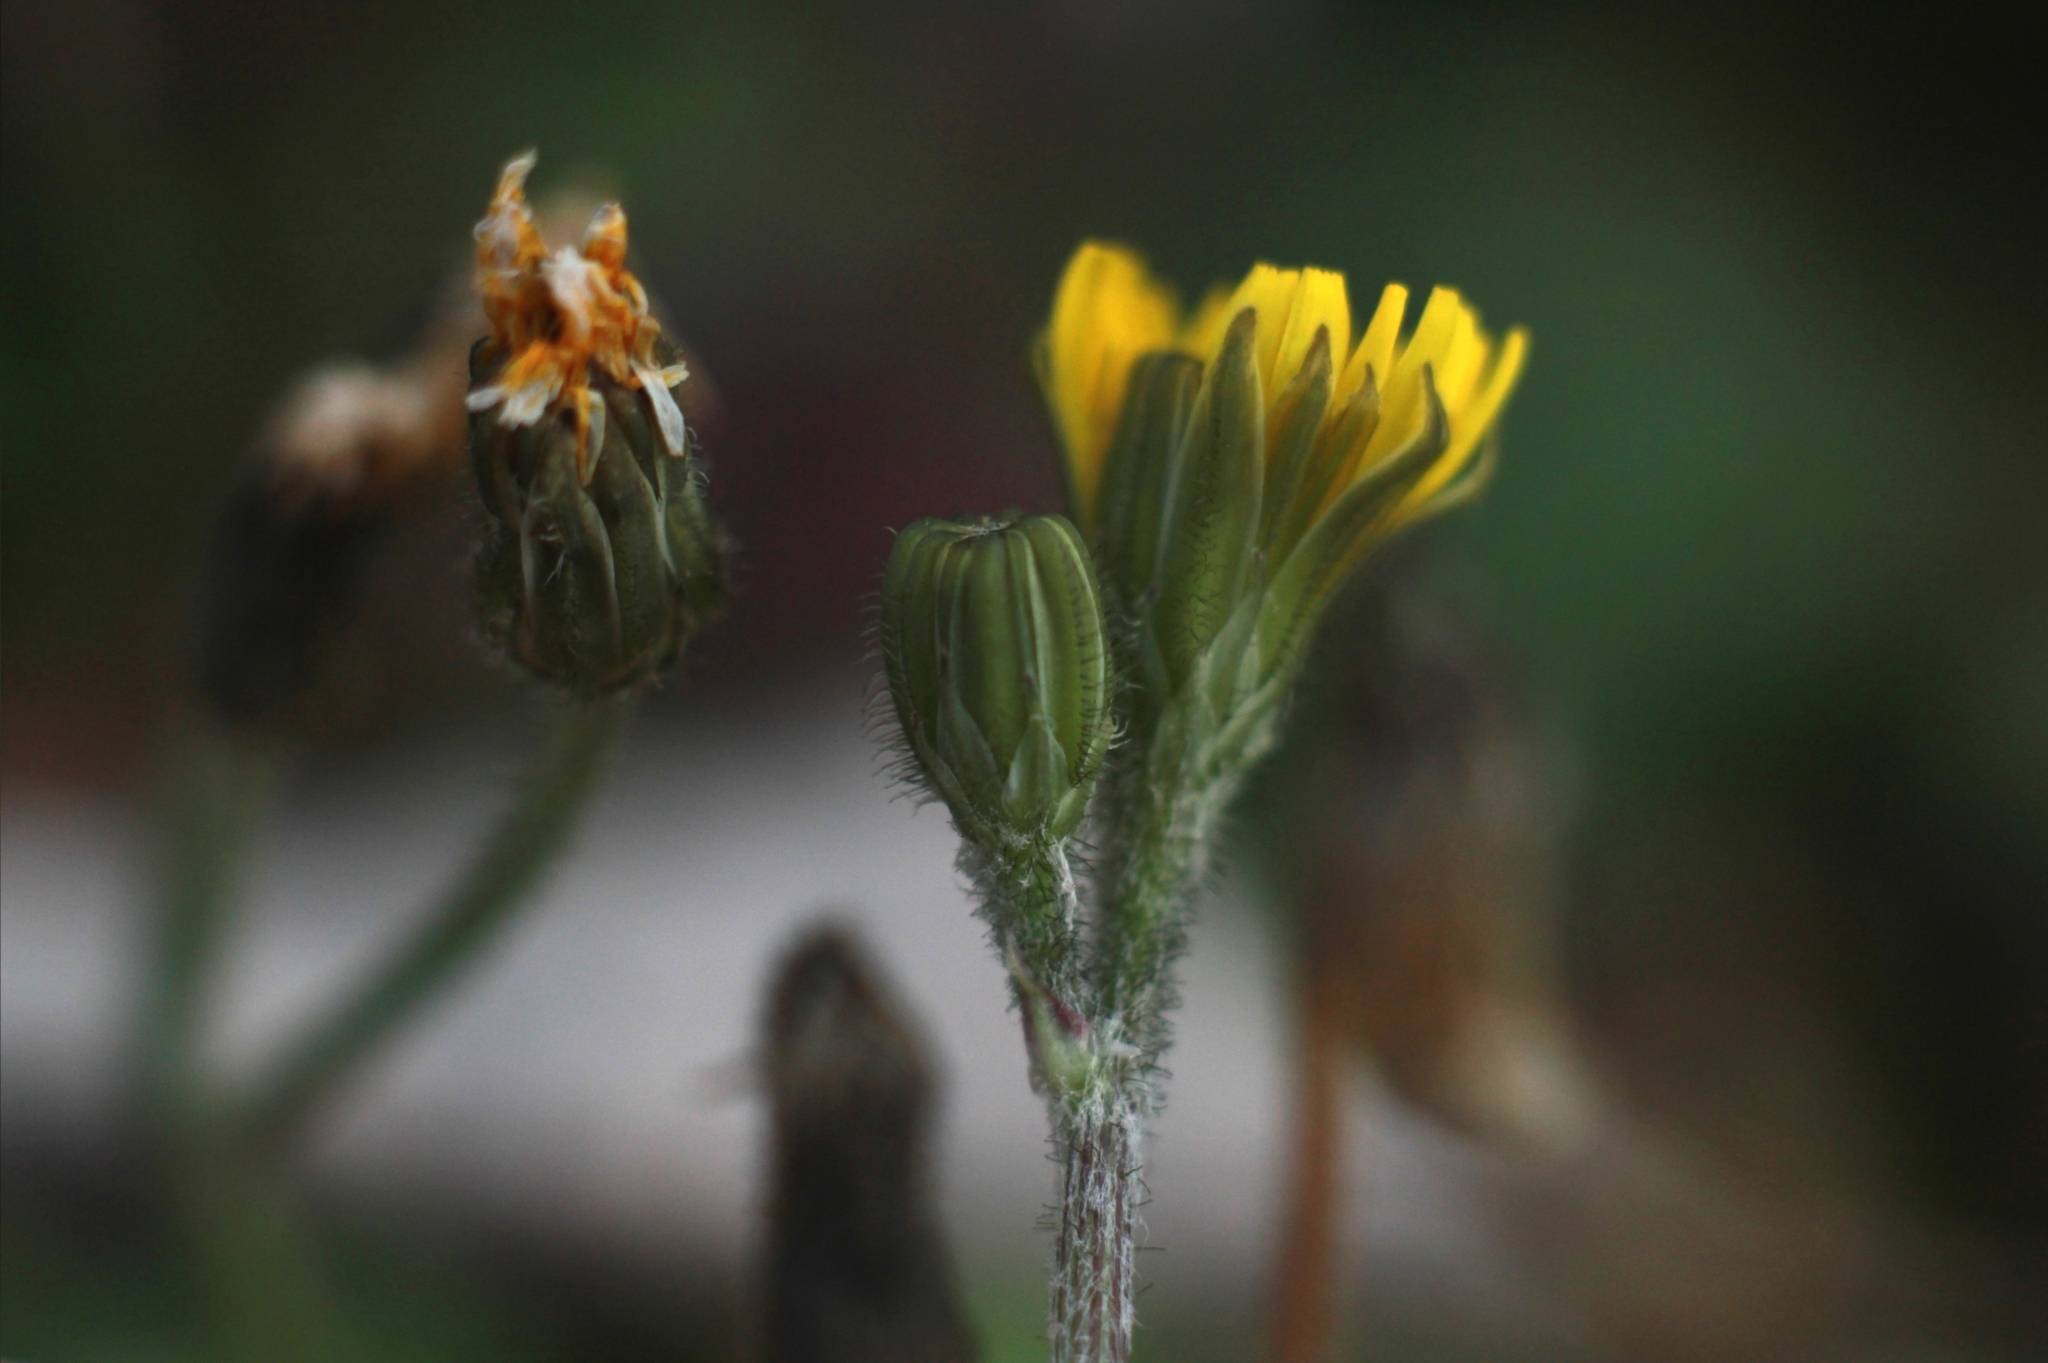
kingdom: Plantae
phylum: Tracheophyta
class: Magnoliopsida
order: Asterales
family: Asteraceae
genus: Crepis
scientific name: Crepis sancta
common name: Hawk's-beard
